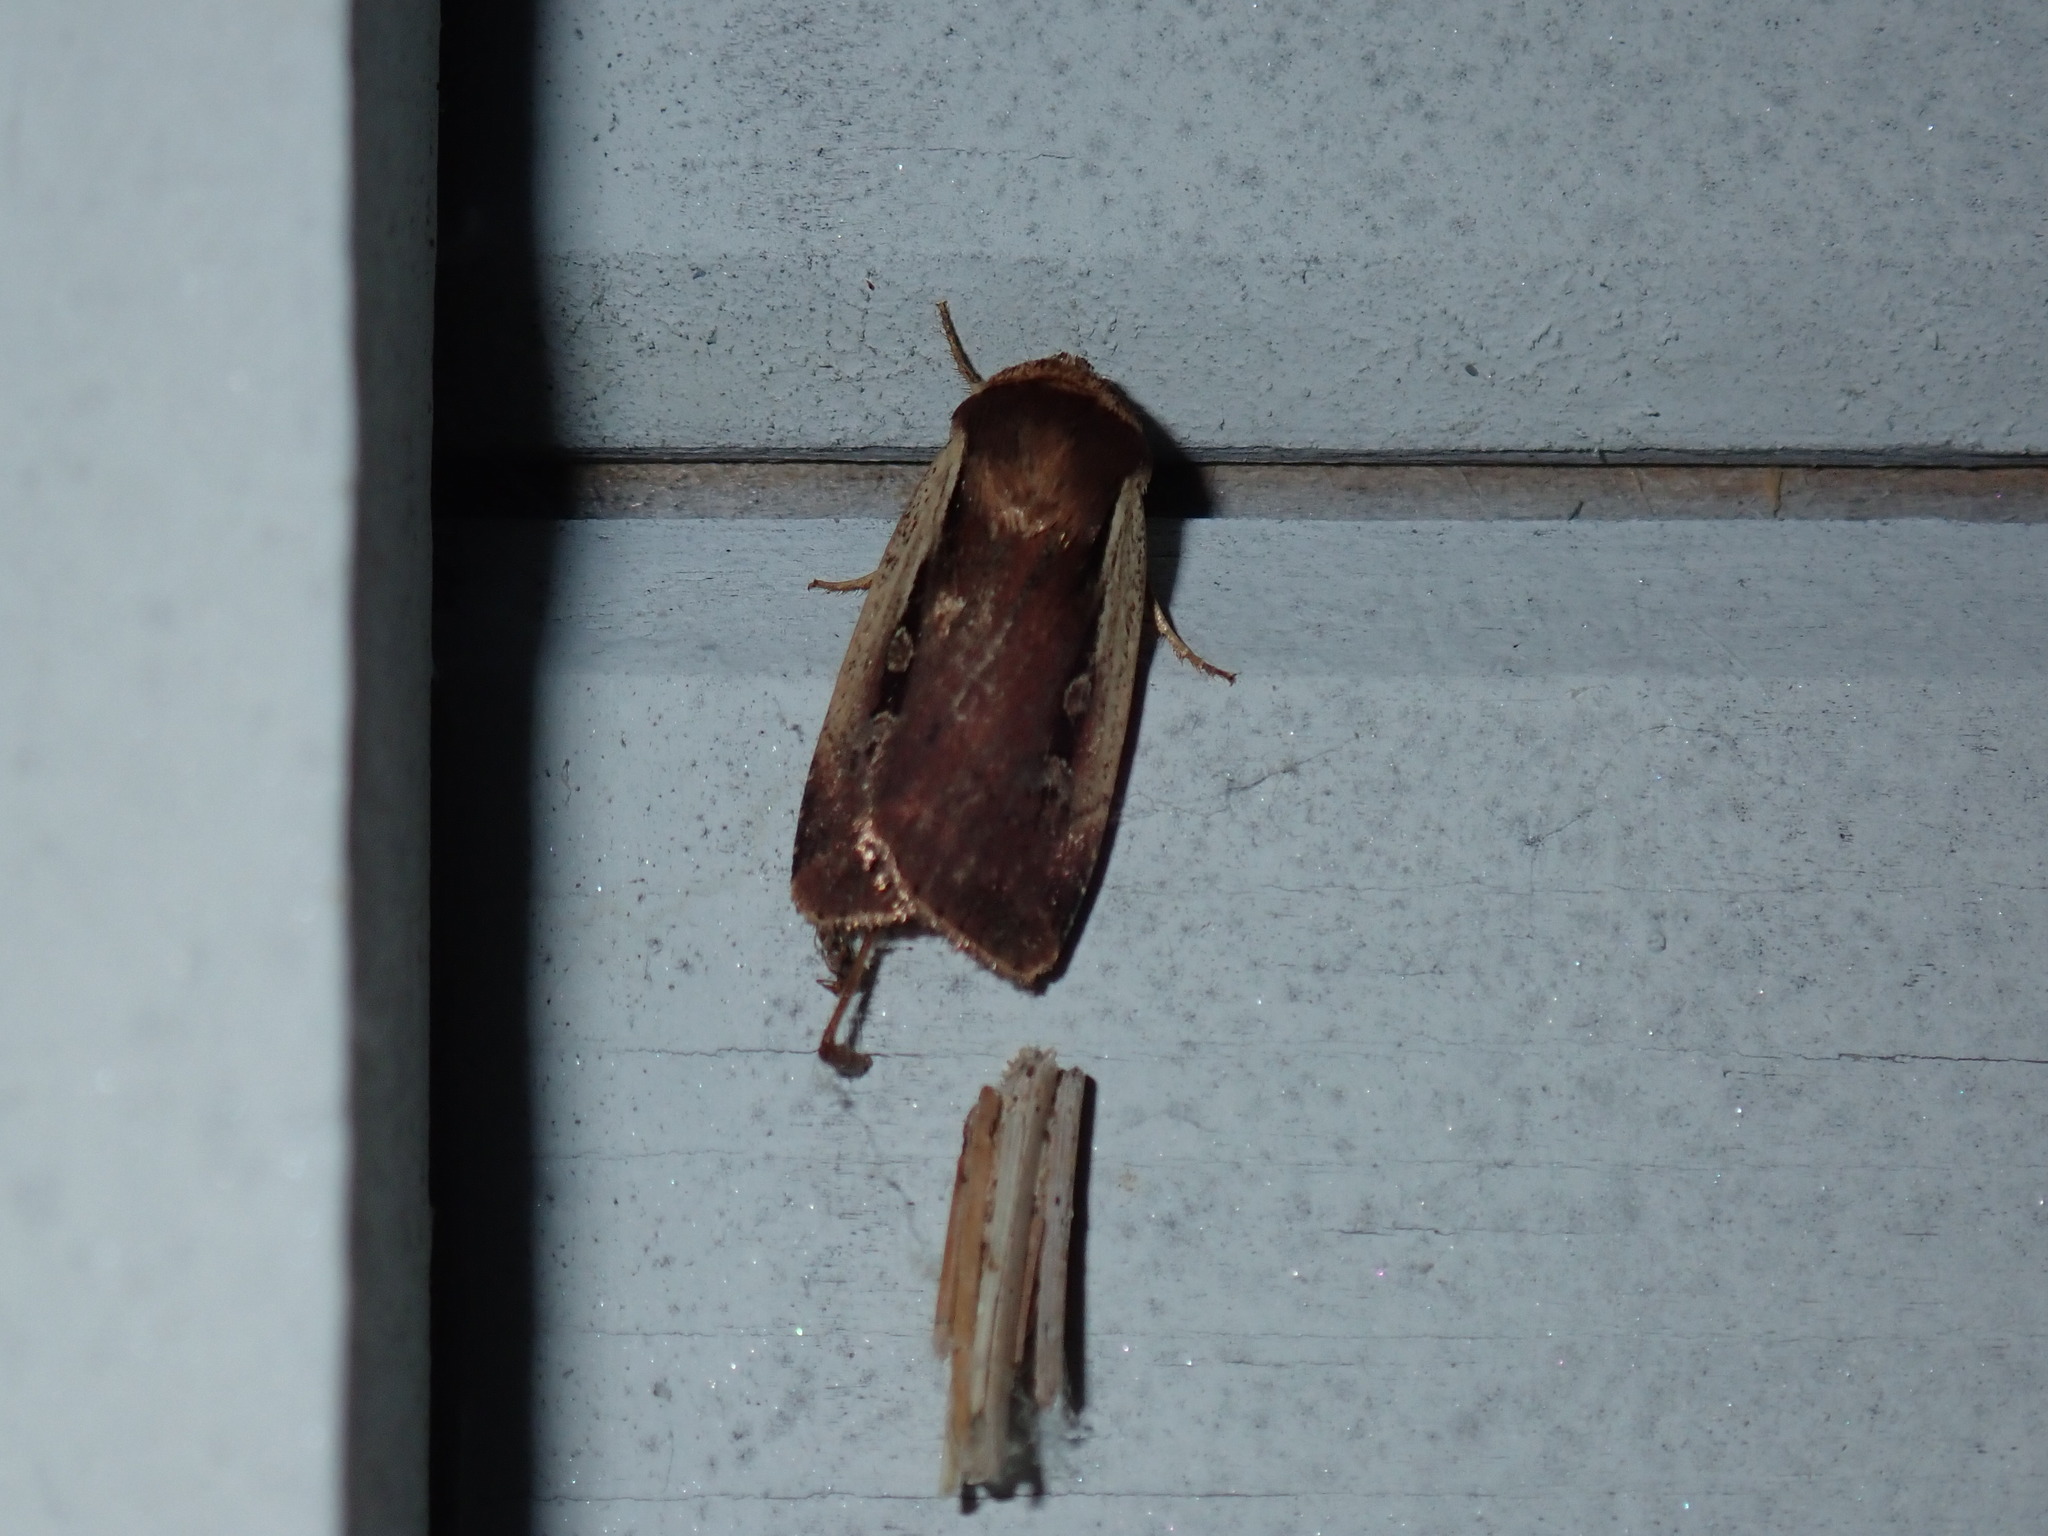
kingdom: Animalia
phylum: Arthropoda
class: Insecta
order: Lepidoptera
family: Noctuidae
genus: Ochropleura
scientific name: Ochropleura implecta
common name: Flame-shouldered dart
